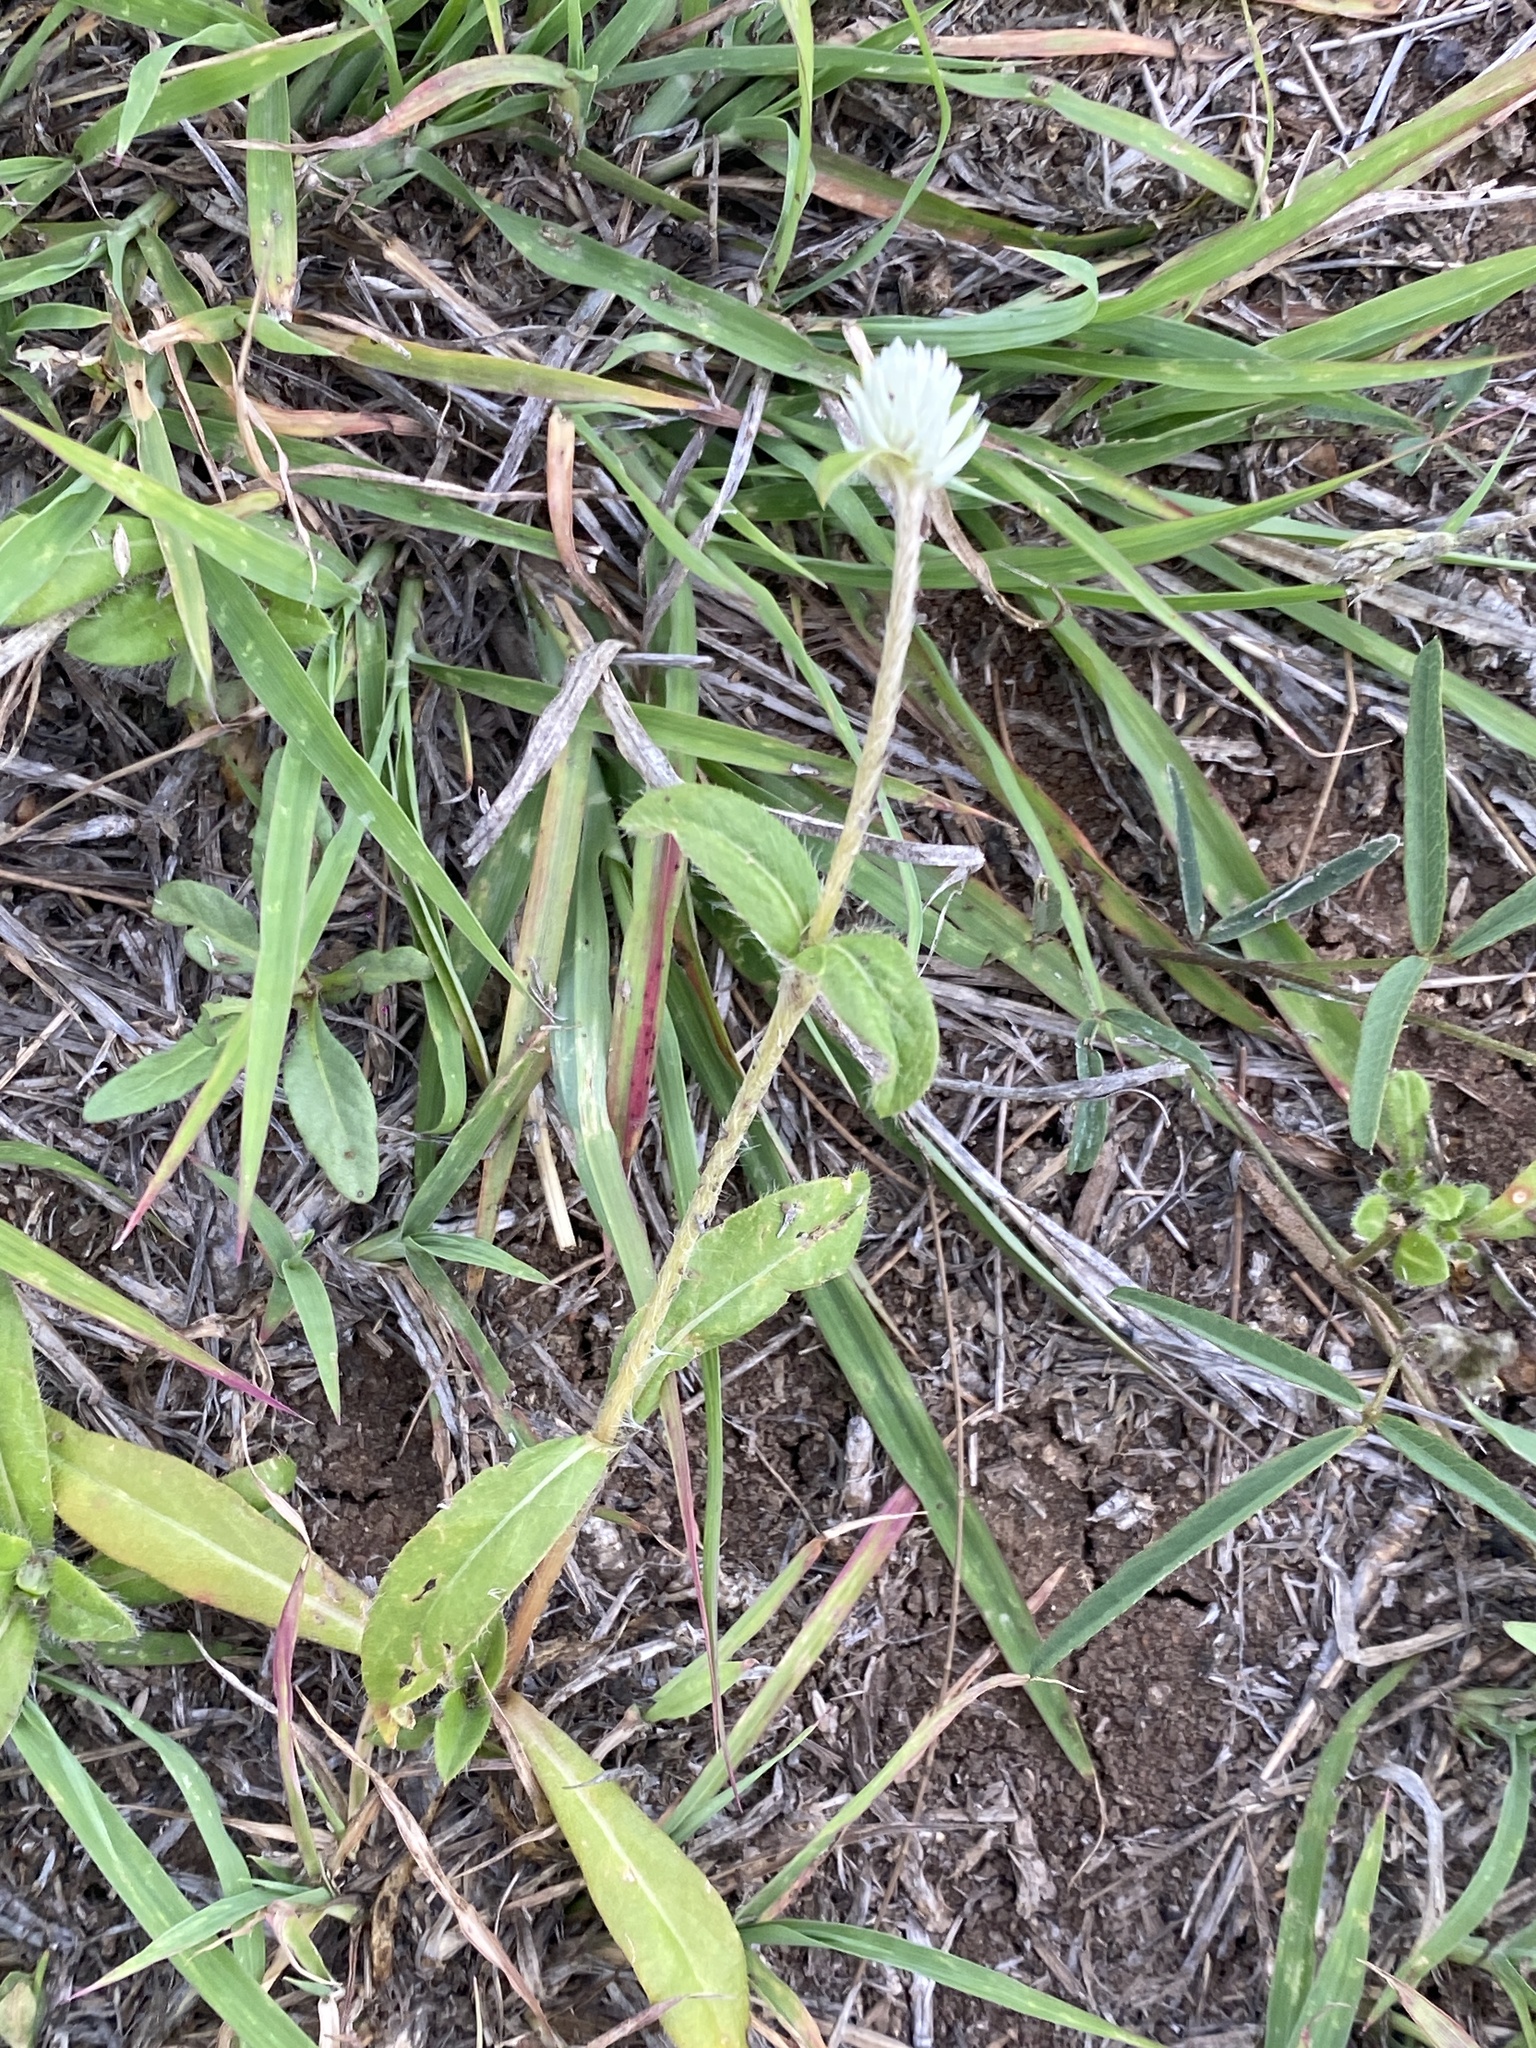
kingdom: Plantae
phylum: Tracheophyta
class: Magnoliopsida
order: Caryophyllales
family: Amaranthaceae
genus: Gomphrena
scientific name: Gomphrena celosioides
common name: Gomphrena-weed
